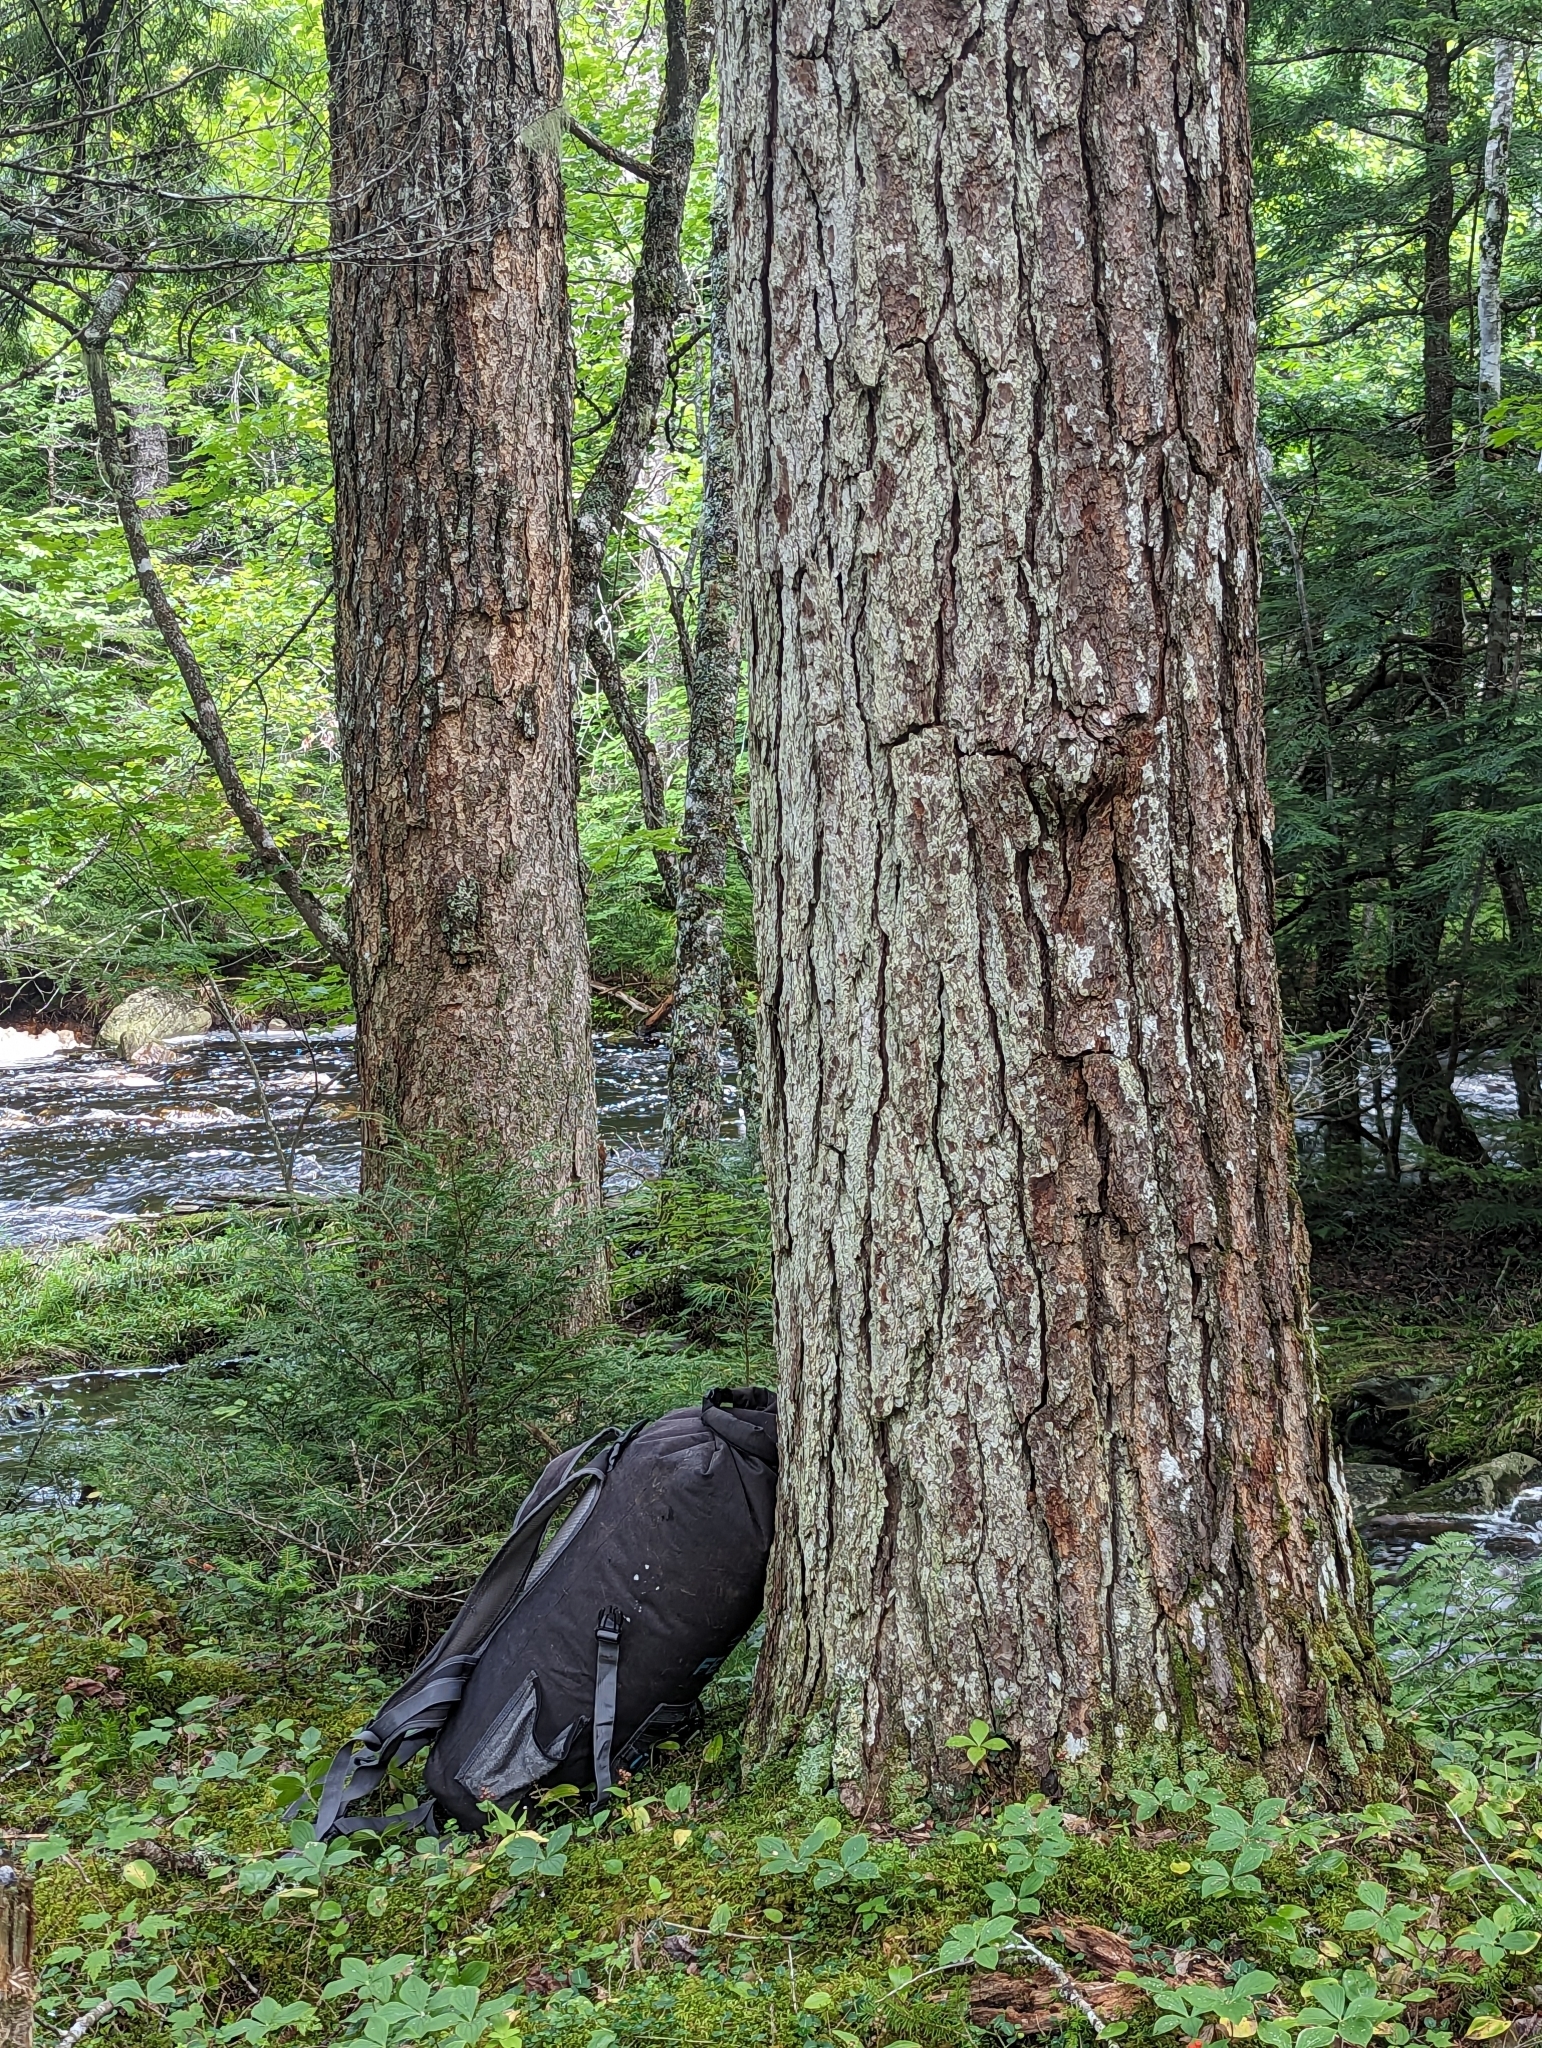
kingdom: Plantae
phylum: Tracheophyta
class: Pinopsida
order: Pinales
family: Pinaceae
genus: Tsuga
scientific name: Tsuga canadensis
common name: Eastern hemlock
